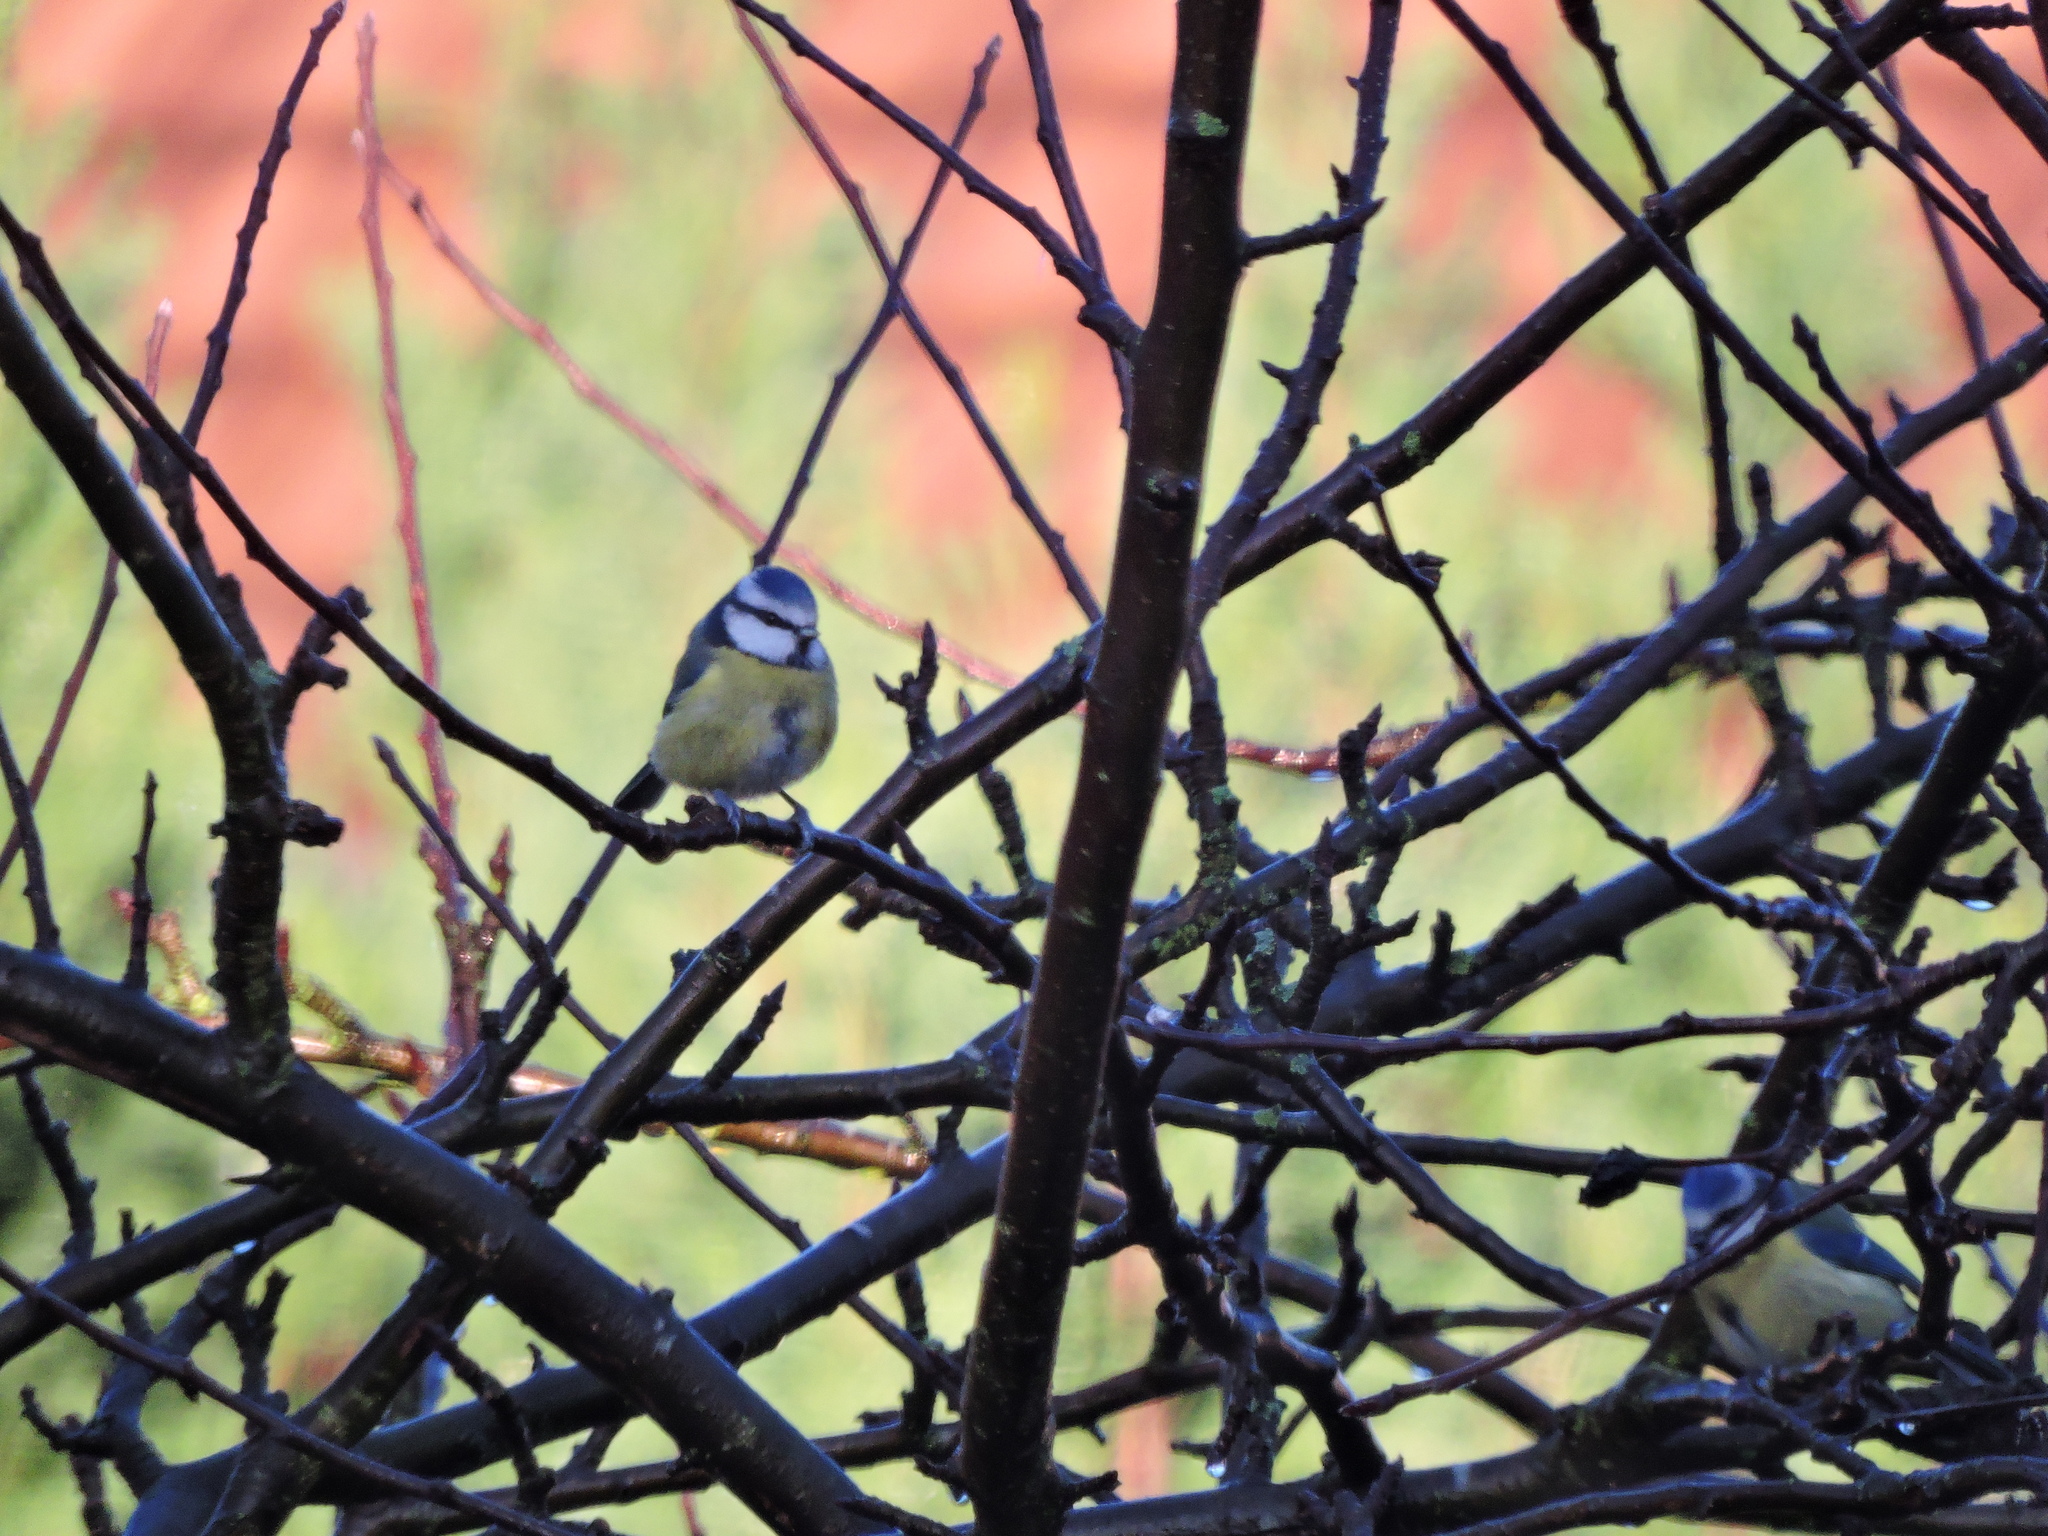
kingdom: Animalia
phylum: Chordata
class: Aves
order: Passeriformes
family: Paridae
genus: Cyanistes
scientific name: Cyanistes caeruleus
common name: Eurasian blue tit
